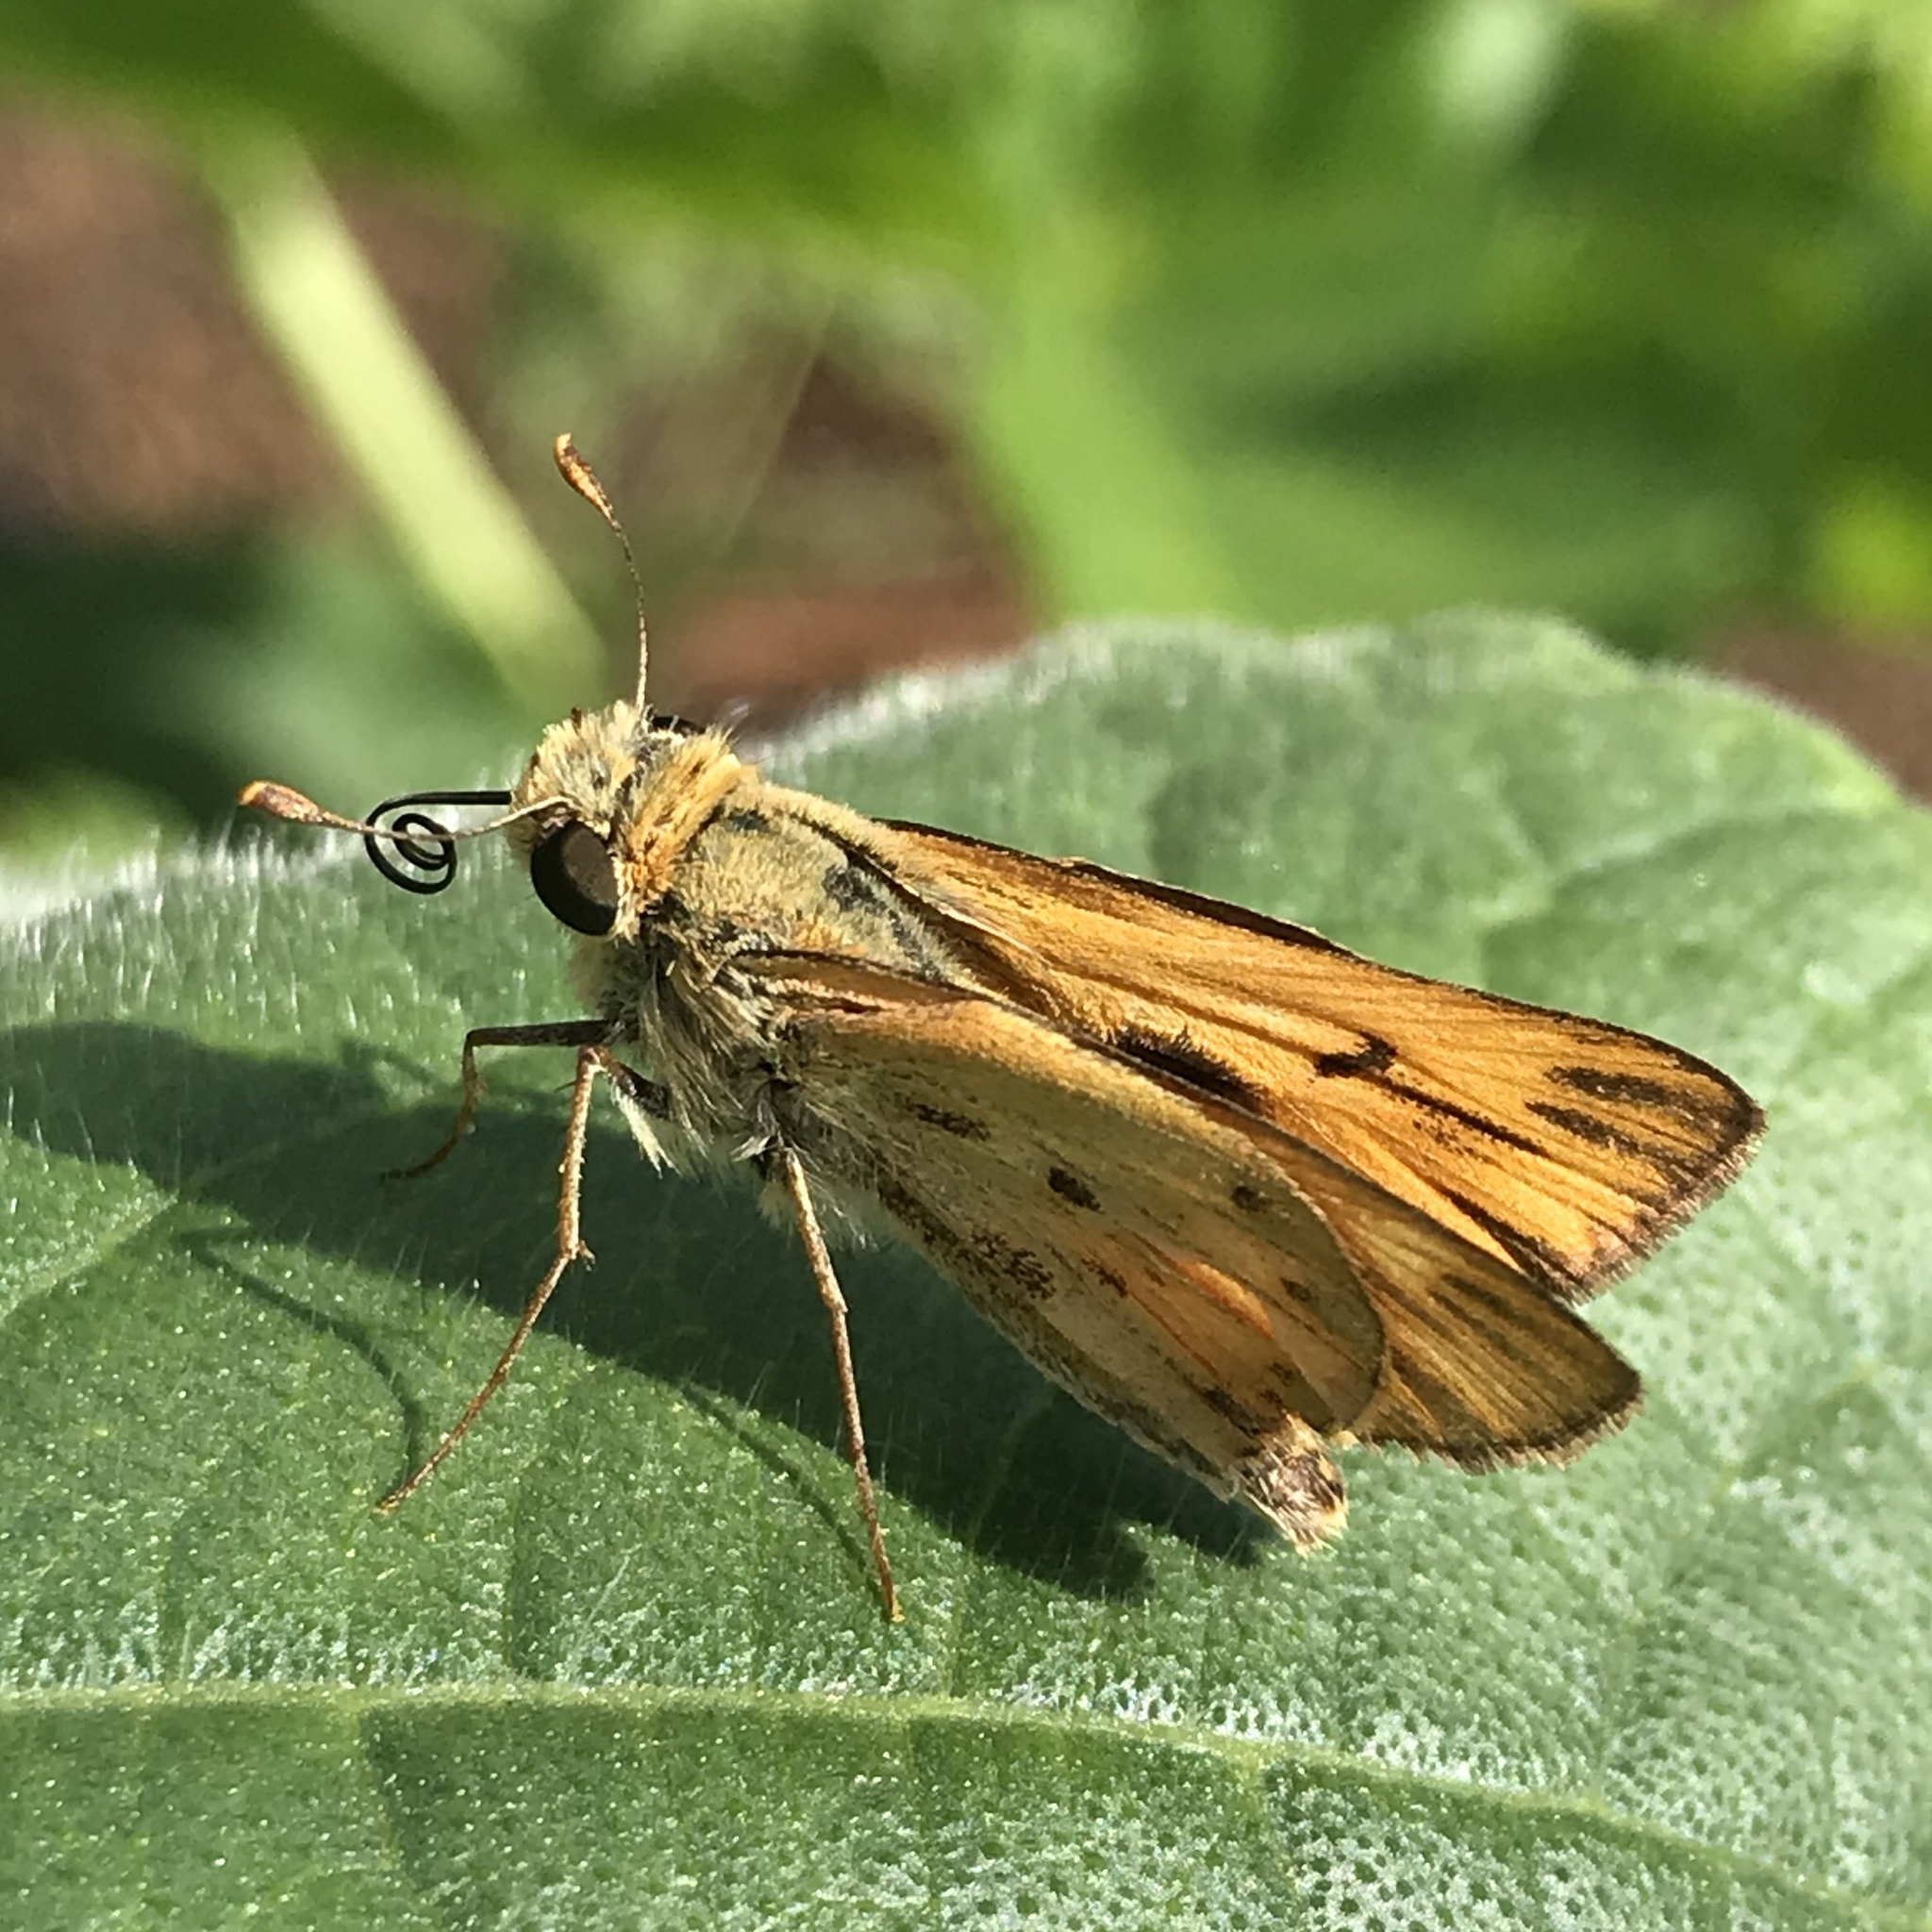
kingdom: Animalia
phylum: Arthropoda
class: Insecta
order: Lepidoptera
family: Hesperiidae
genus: Hylephila
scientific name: Hylephila phyleus
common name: Fiery skipper
